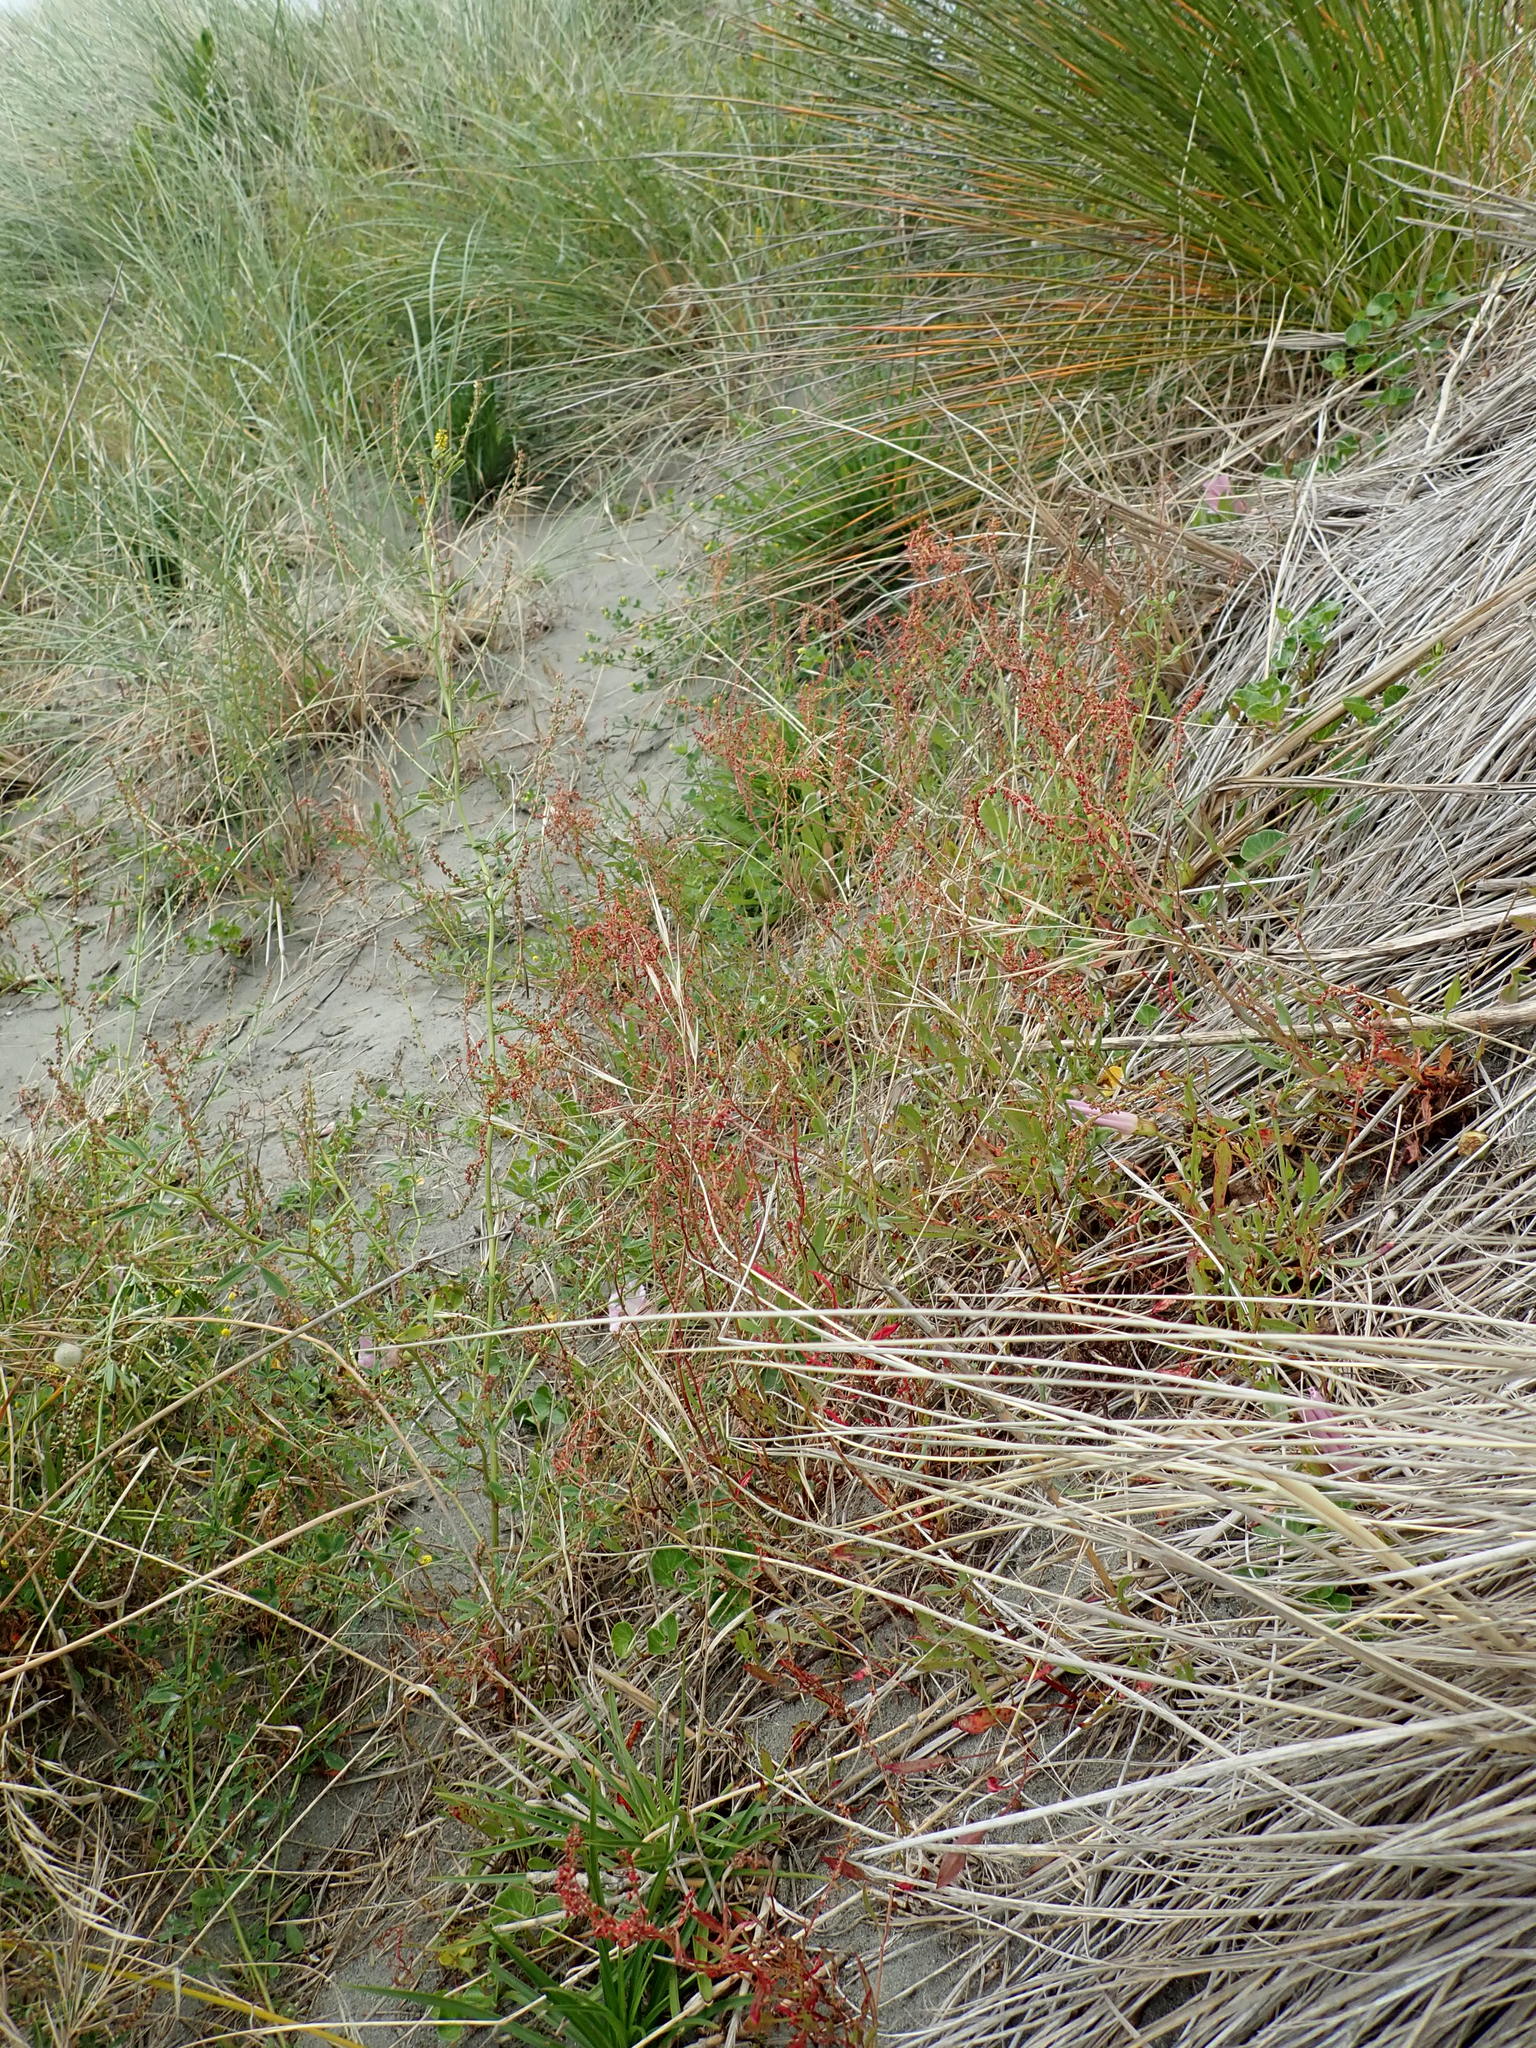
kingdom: Plantae
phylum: Tracheophyta
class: Magnoliopsida
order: Caryophyllales
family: Polygonaceae
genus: Rumex
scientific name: Rumex acetosella
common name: Common sheep sorrel
